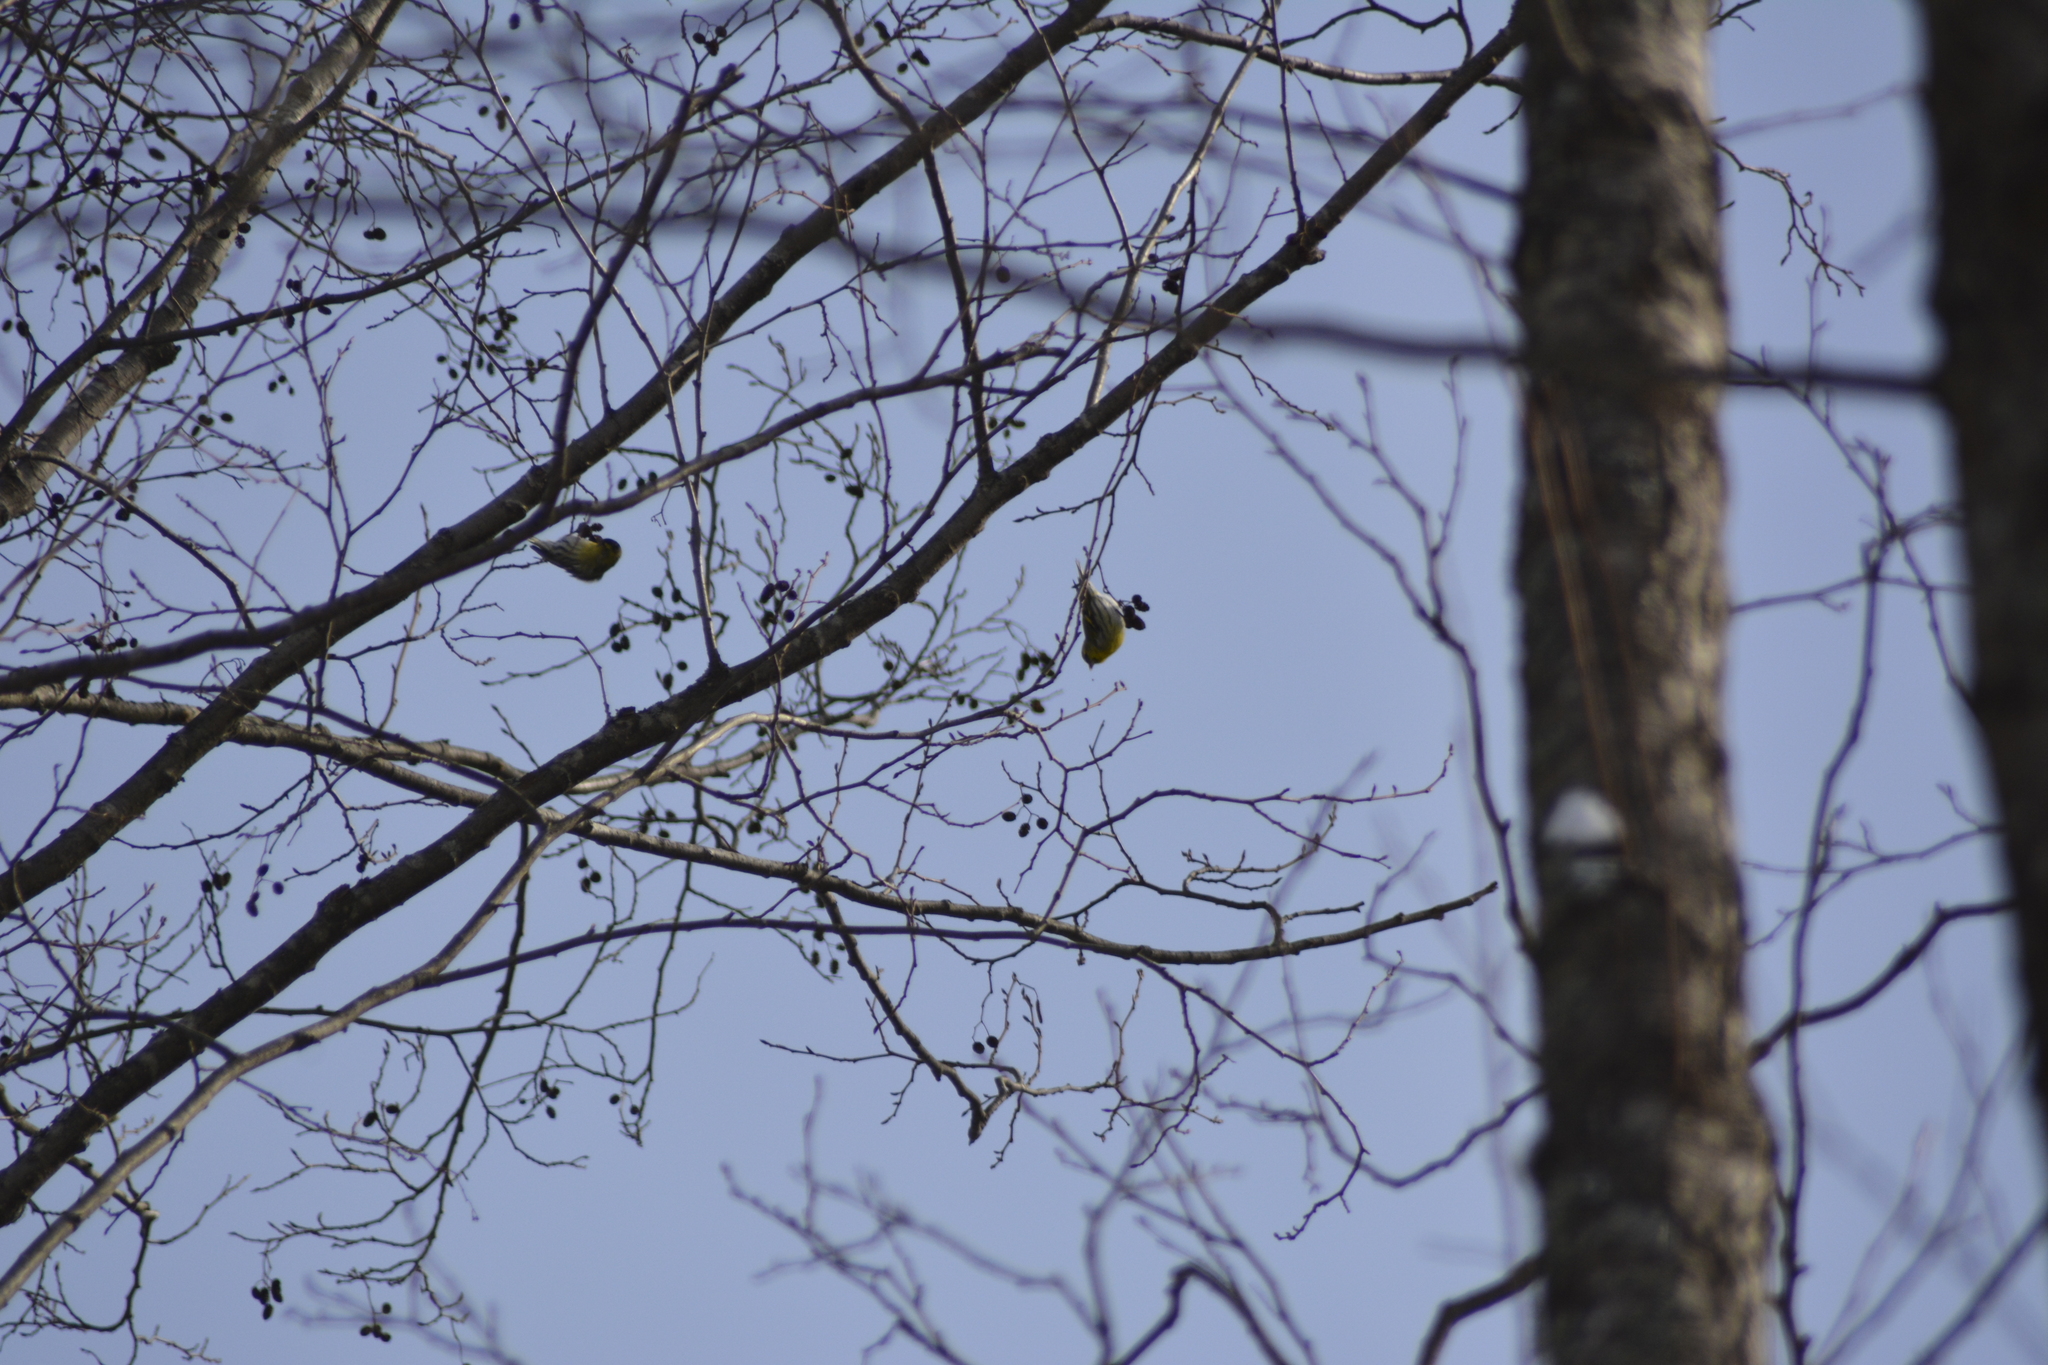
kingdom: Animalia
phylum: Chordata
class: Aves
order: Passeriformes
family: Fringillidae
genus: Spinus
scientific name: Spinus spinus
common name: Eurasian siskin
